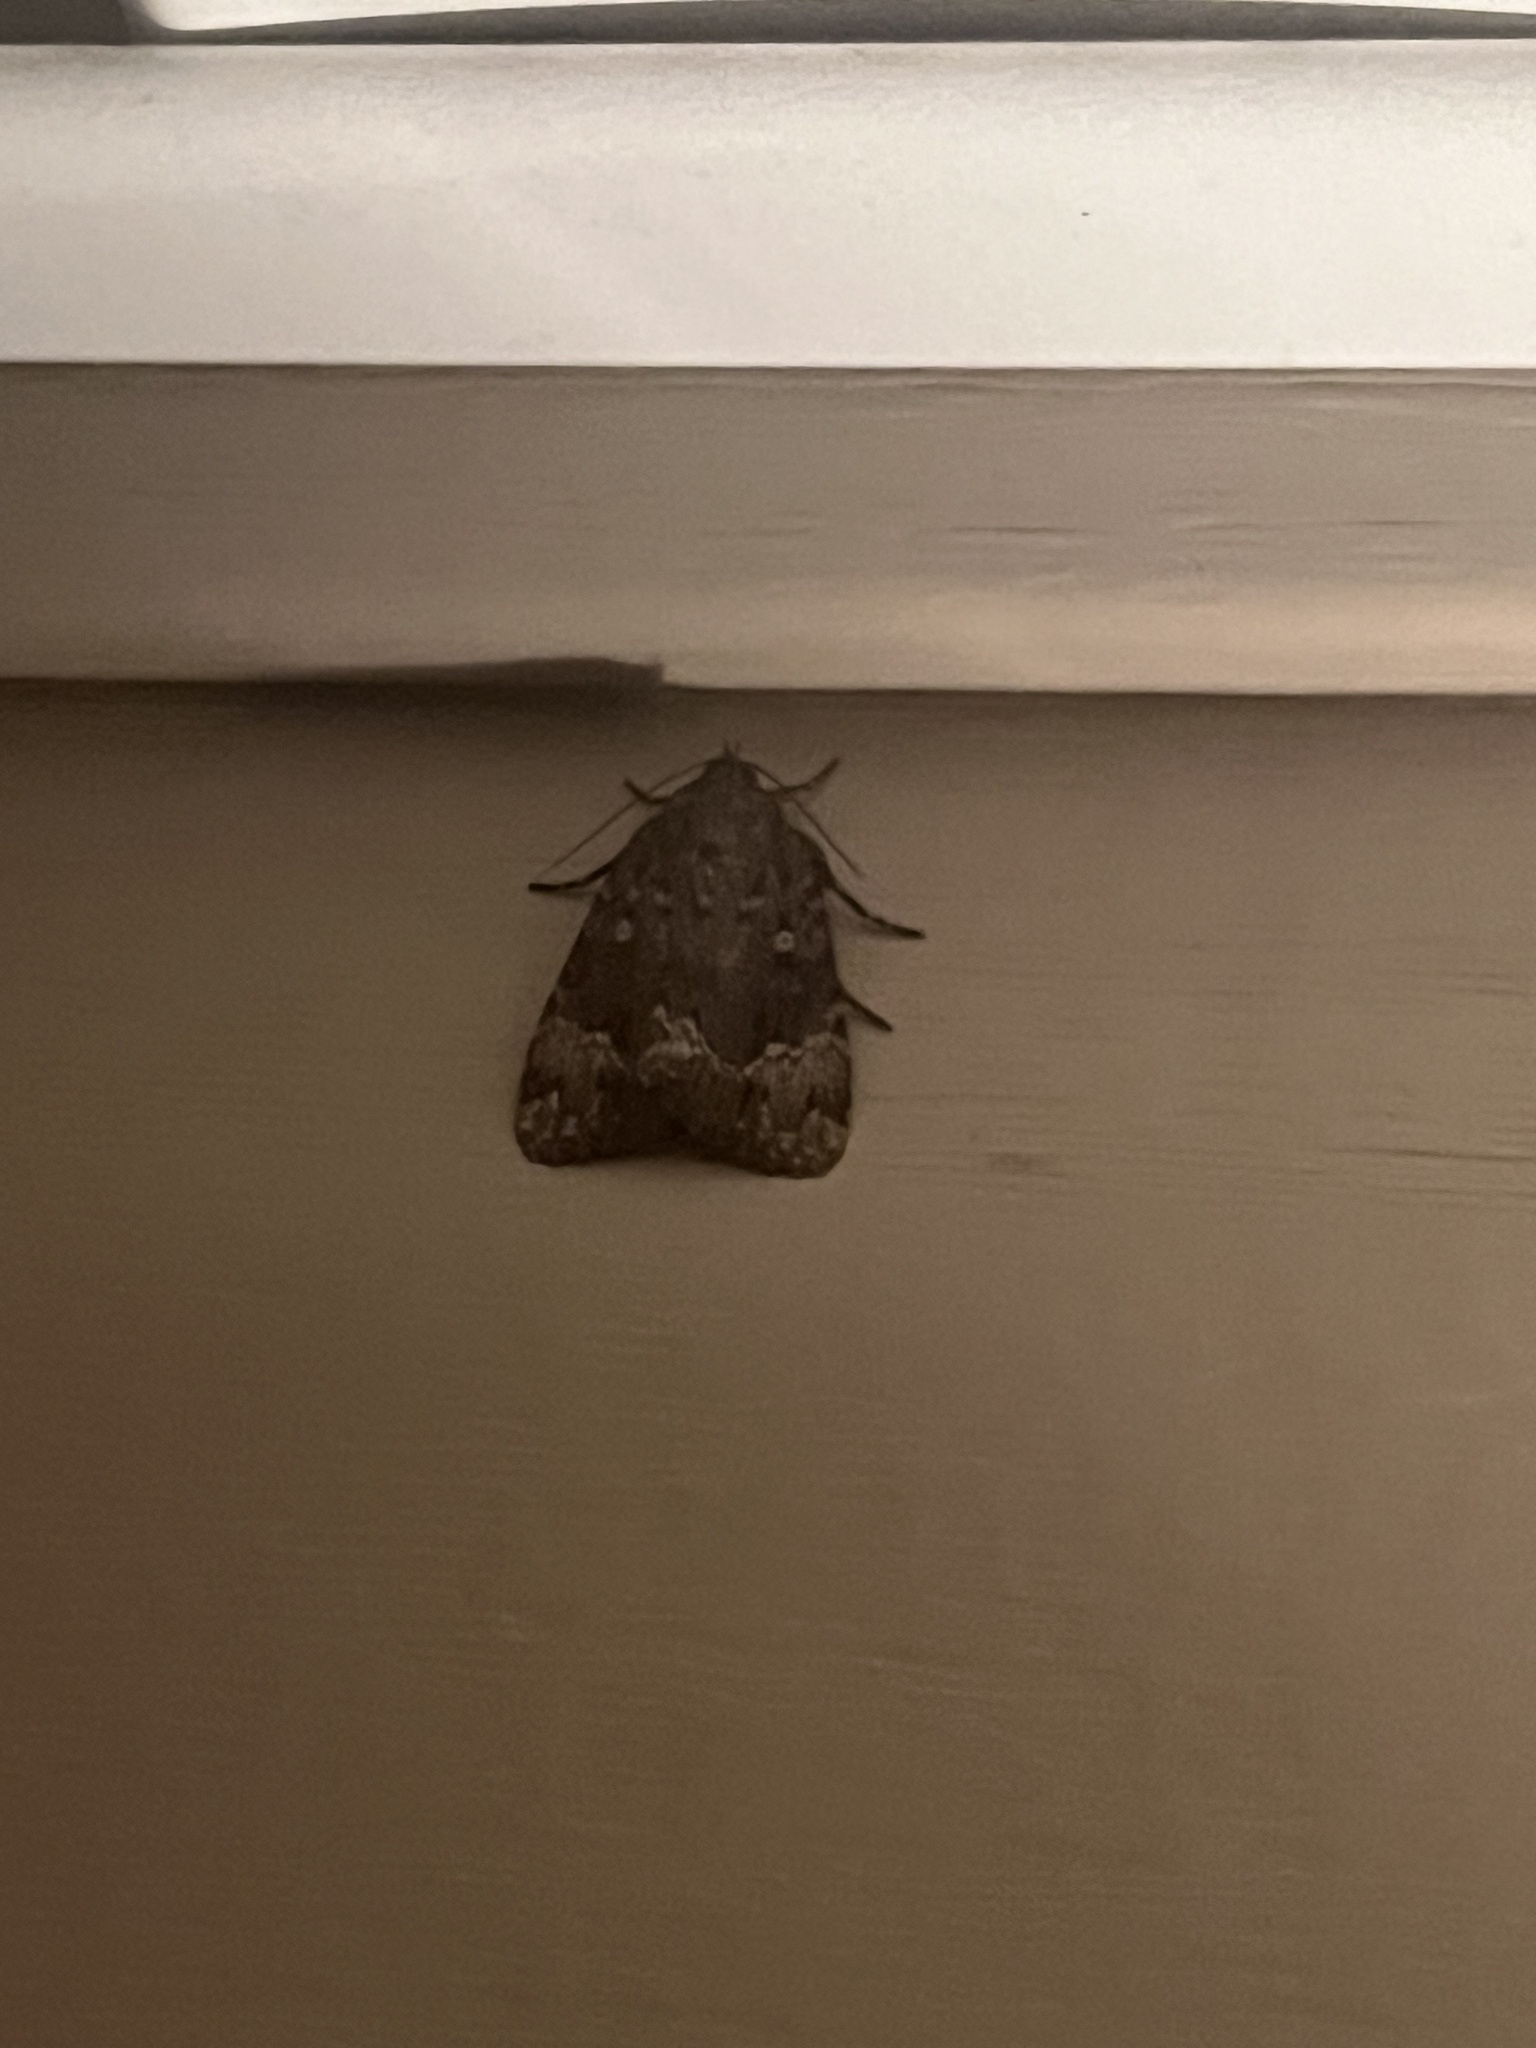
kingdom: Animalia
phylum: Arthropoda
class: Insecta
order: Lepidoptera
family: Noctuidae
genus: Amphipyra
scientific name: Amphipyra pyramidoides
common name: American copper underwing
